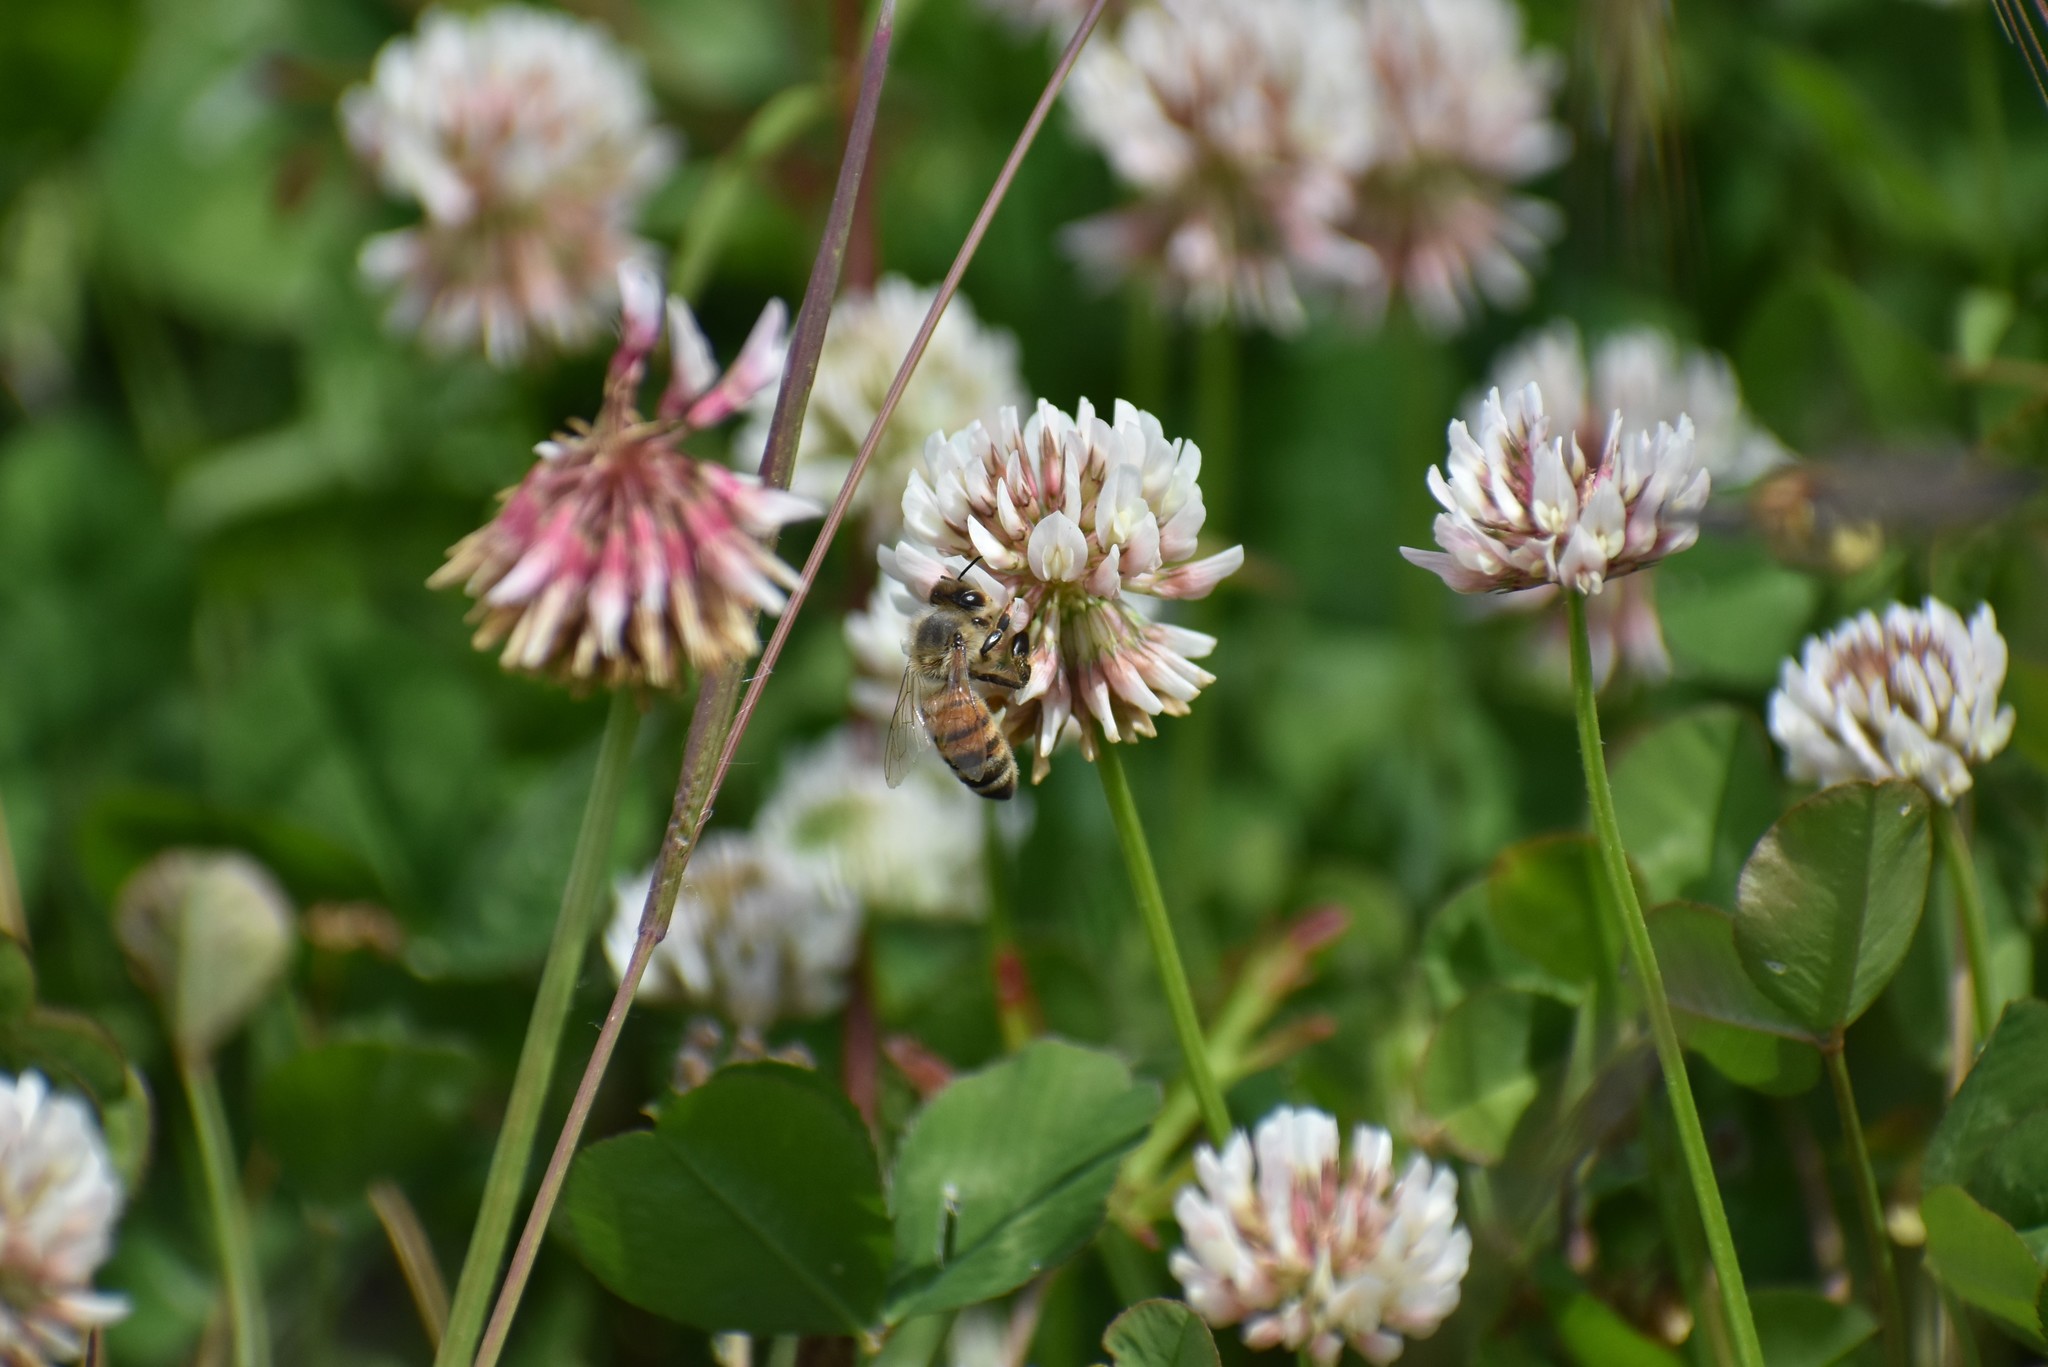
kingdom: Animalia
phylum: Arthropoda
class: Insecta
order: Hymenoptera
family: Apidae
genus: Apis
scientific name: Apis mellifera
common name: Honey bee
